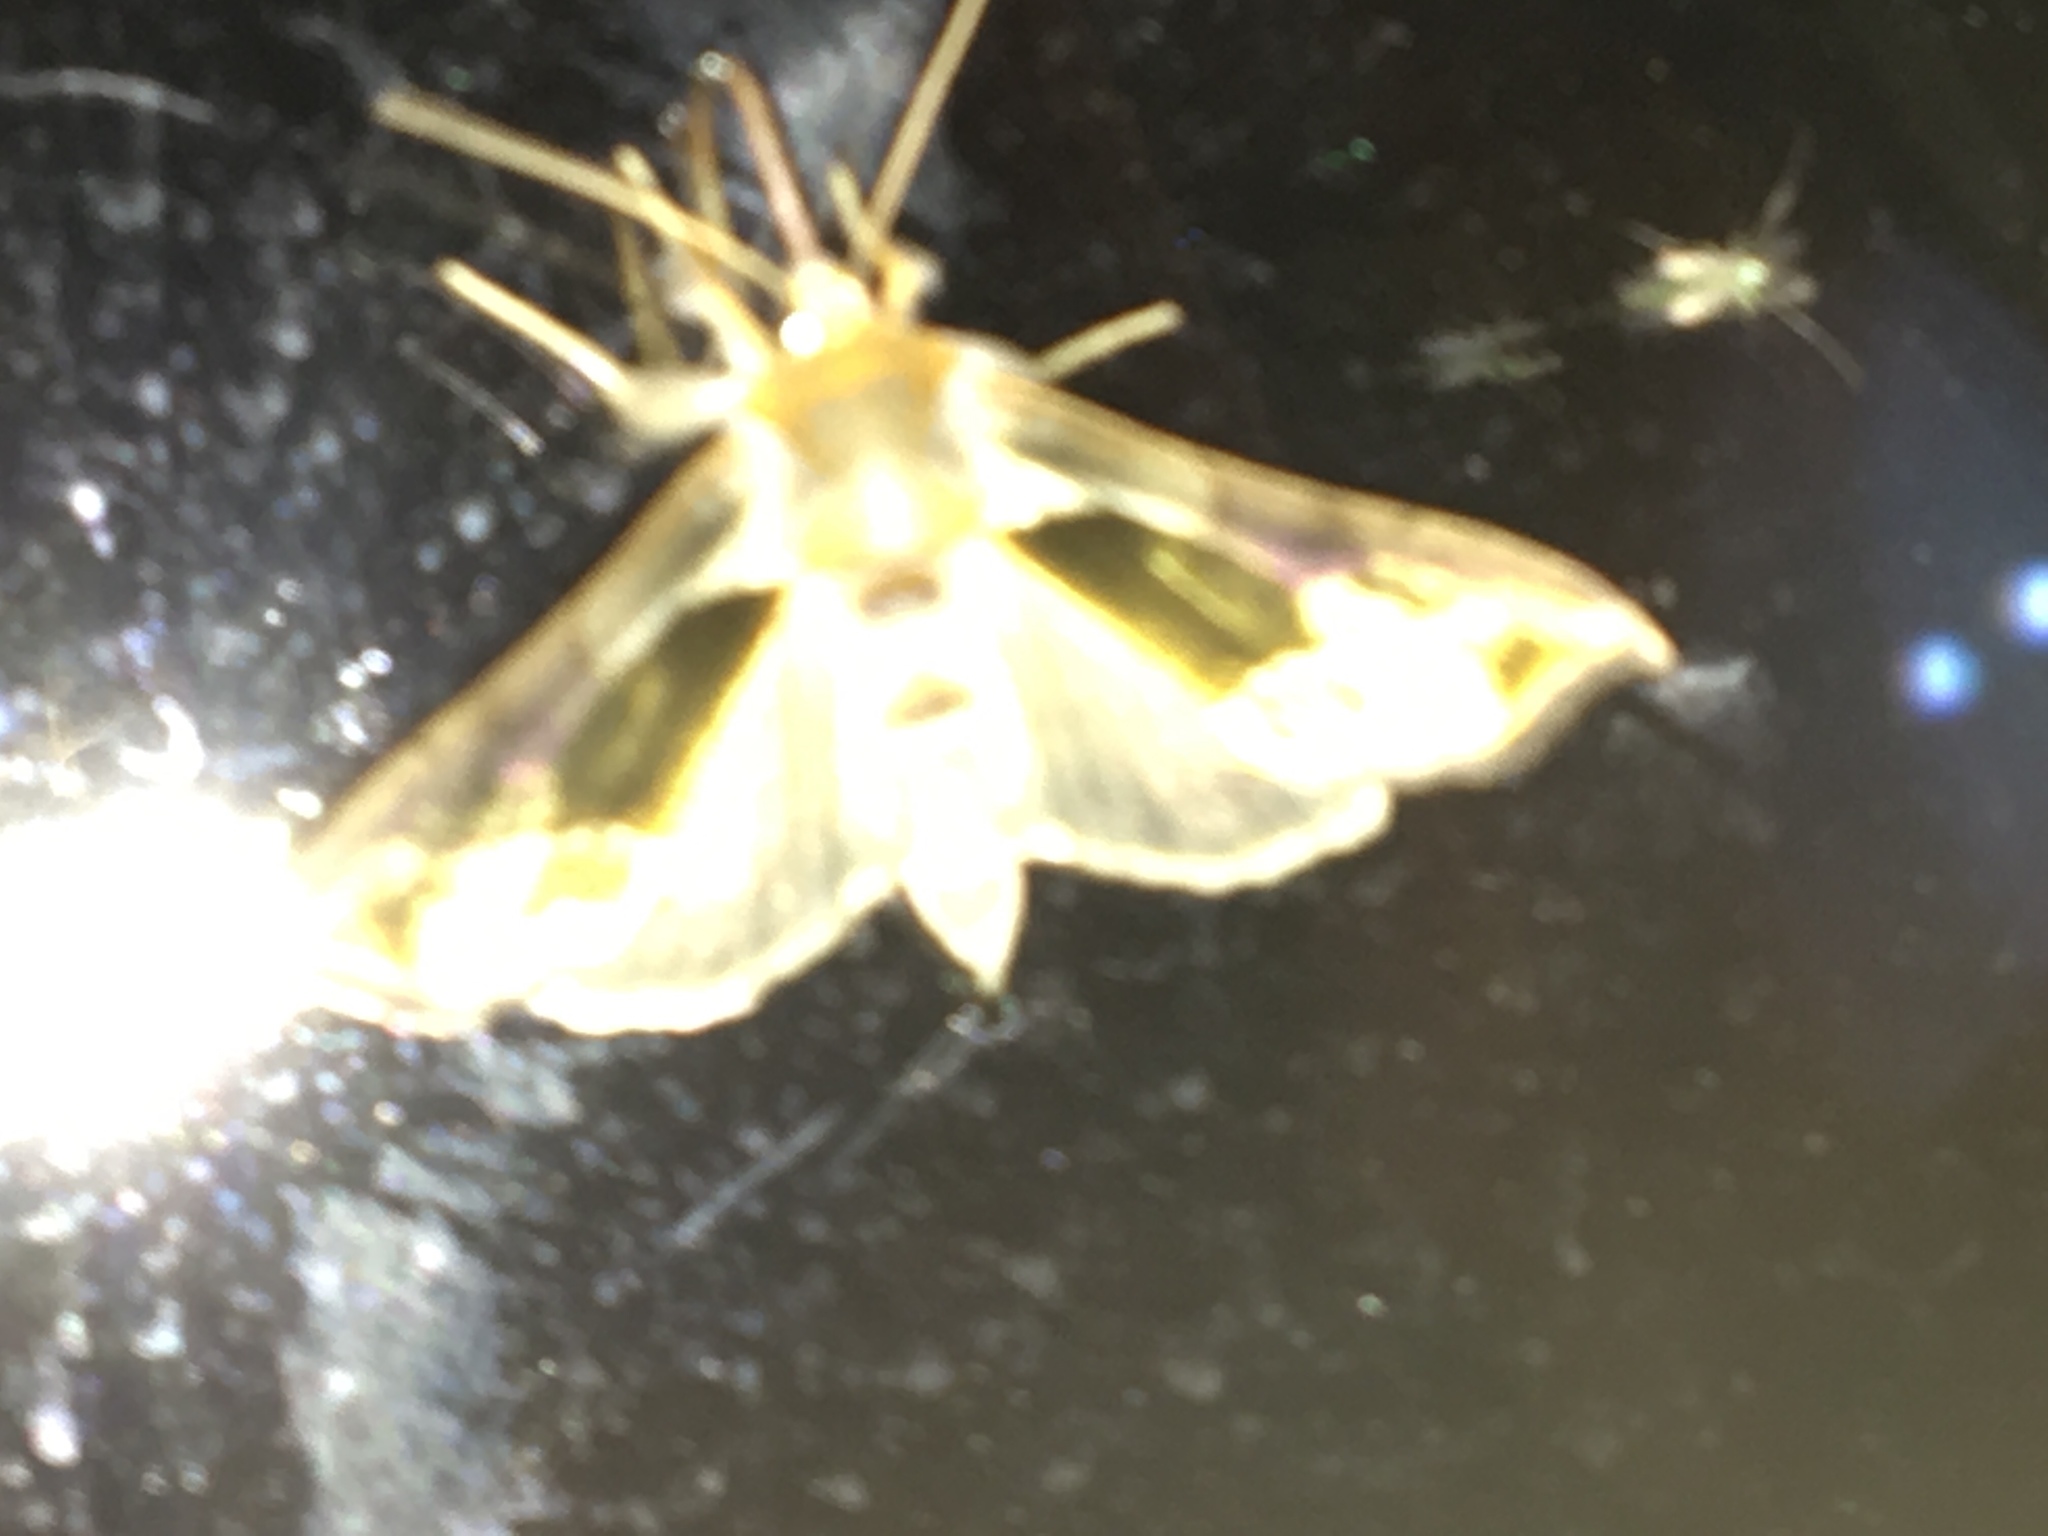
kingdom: Animalia
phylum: Arthropoda
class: Insecta
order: Lepidoptera
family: Noctuidae
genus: Diachrysia
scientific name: Diachrysia balluca
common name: Green-patched looper moth
